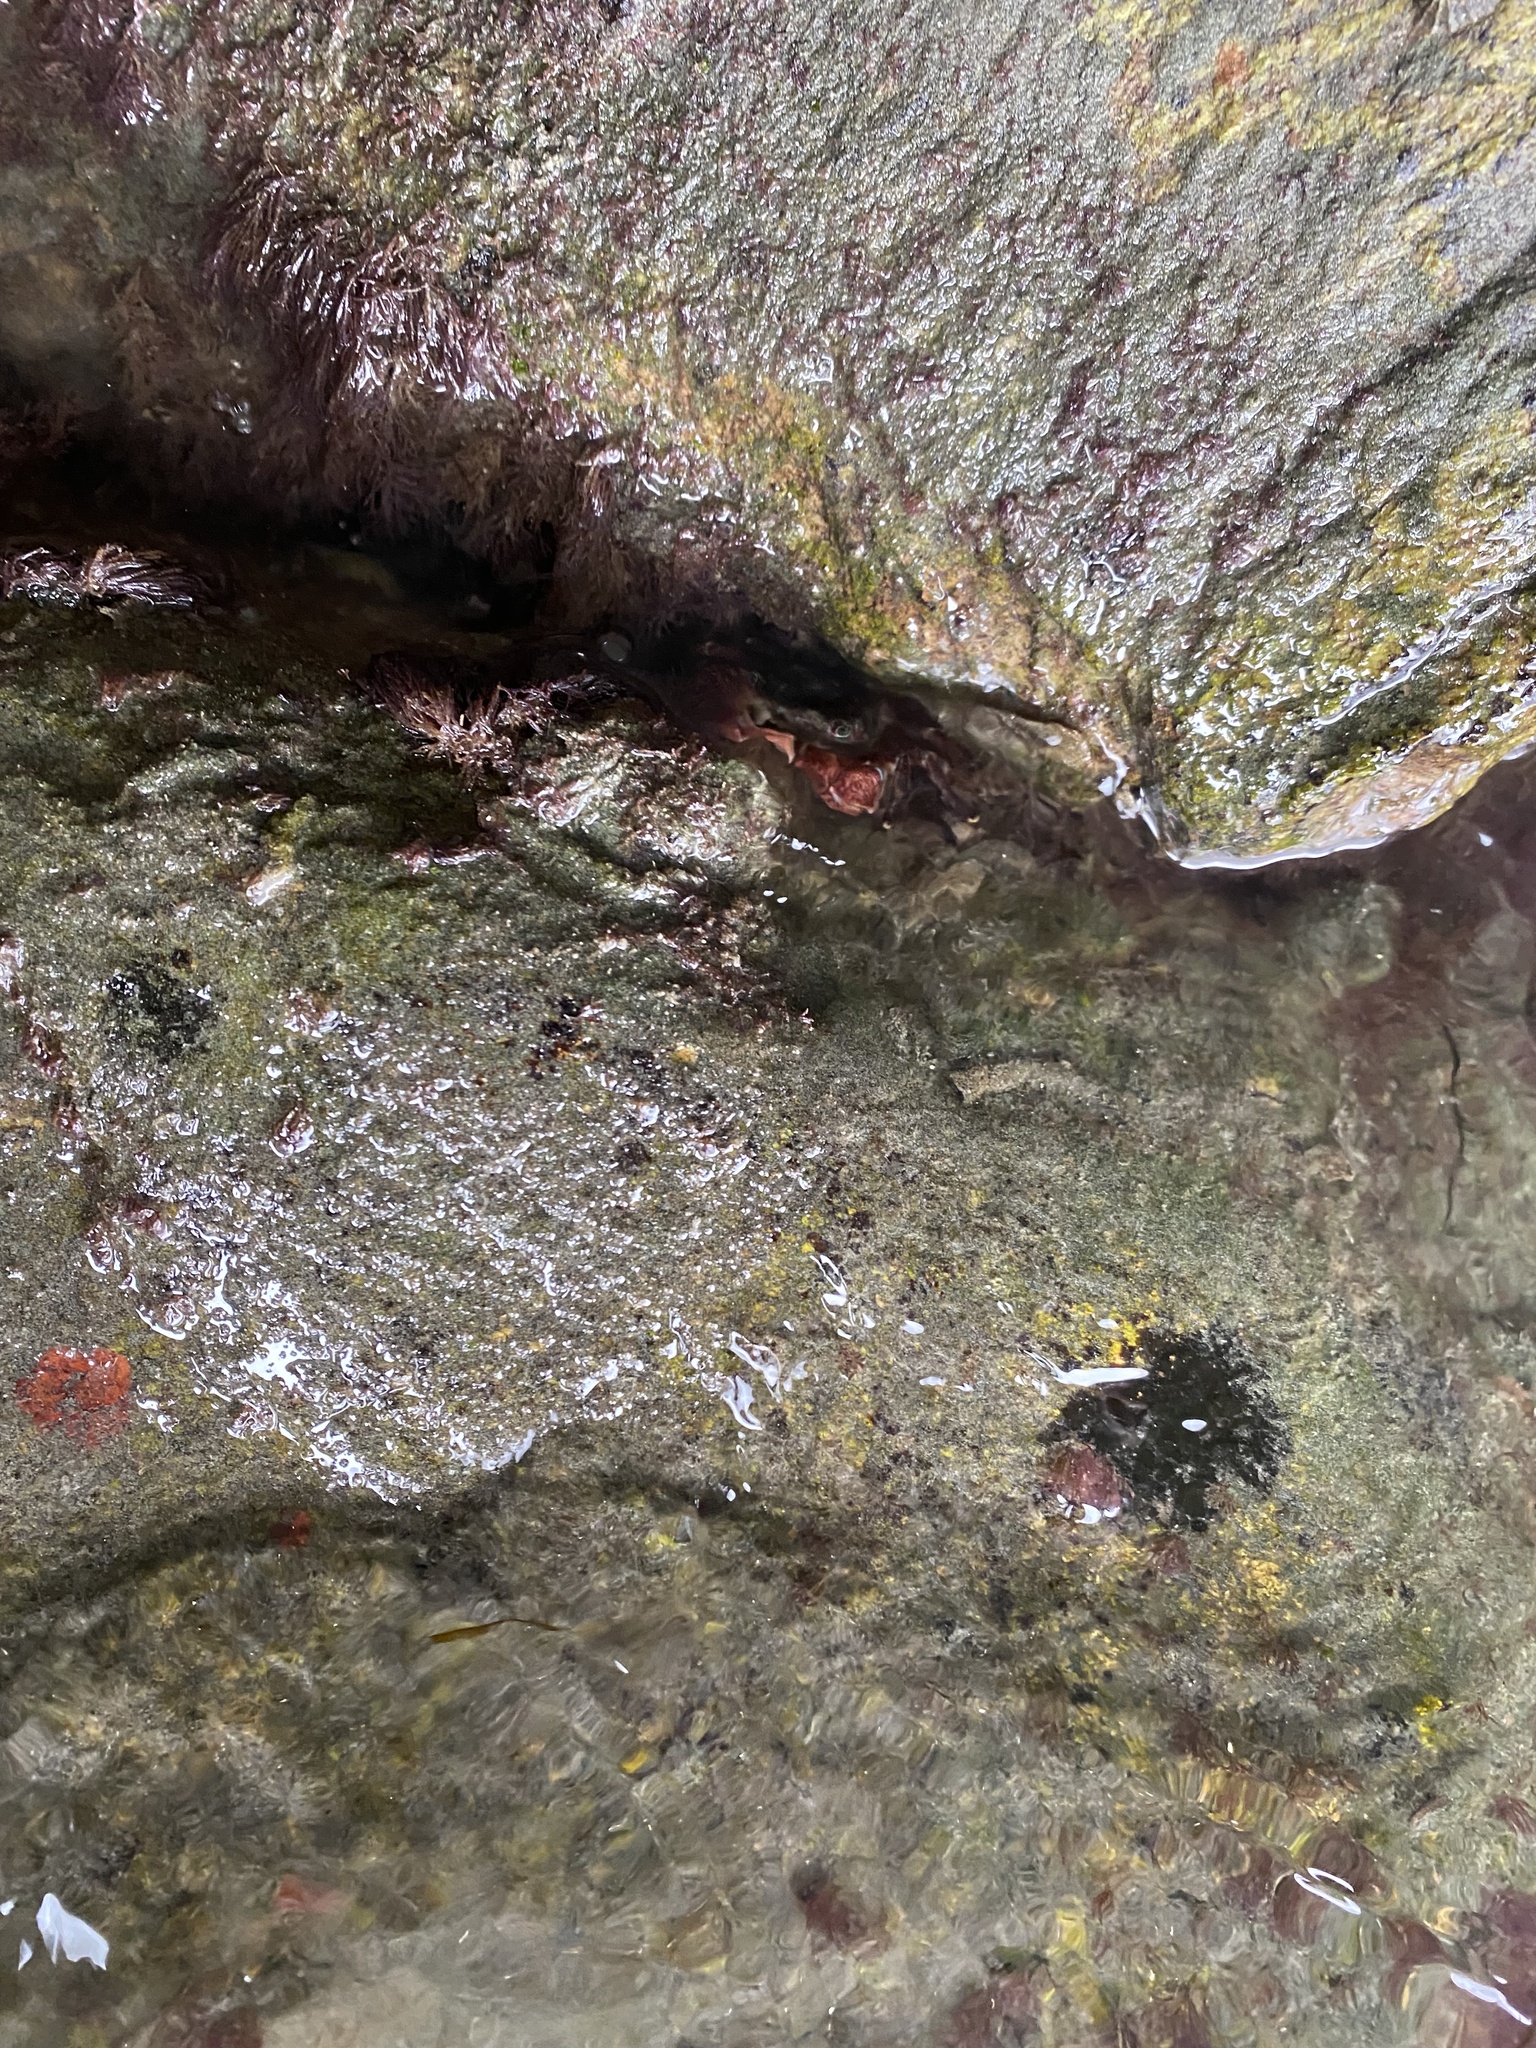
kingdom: Animalia
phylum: Arthropoda
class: Malacostraca
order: Decapoda
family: Grapsidae
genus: Pachygrapsus
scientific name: Pachygrapsus crassipes
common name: Striped shore crab
